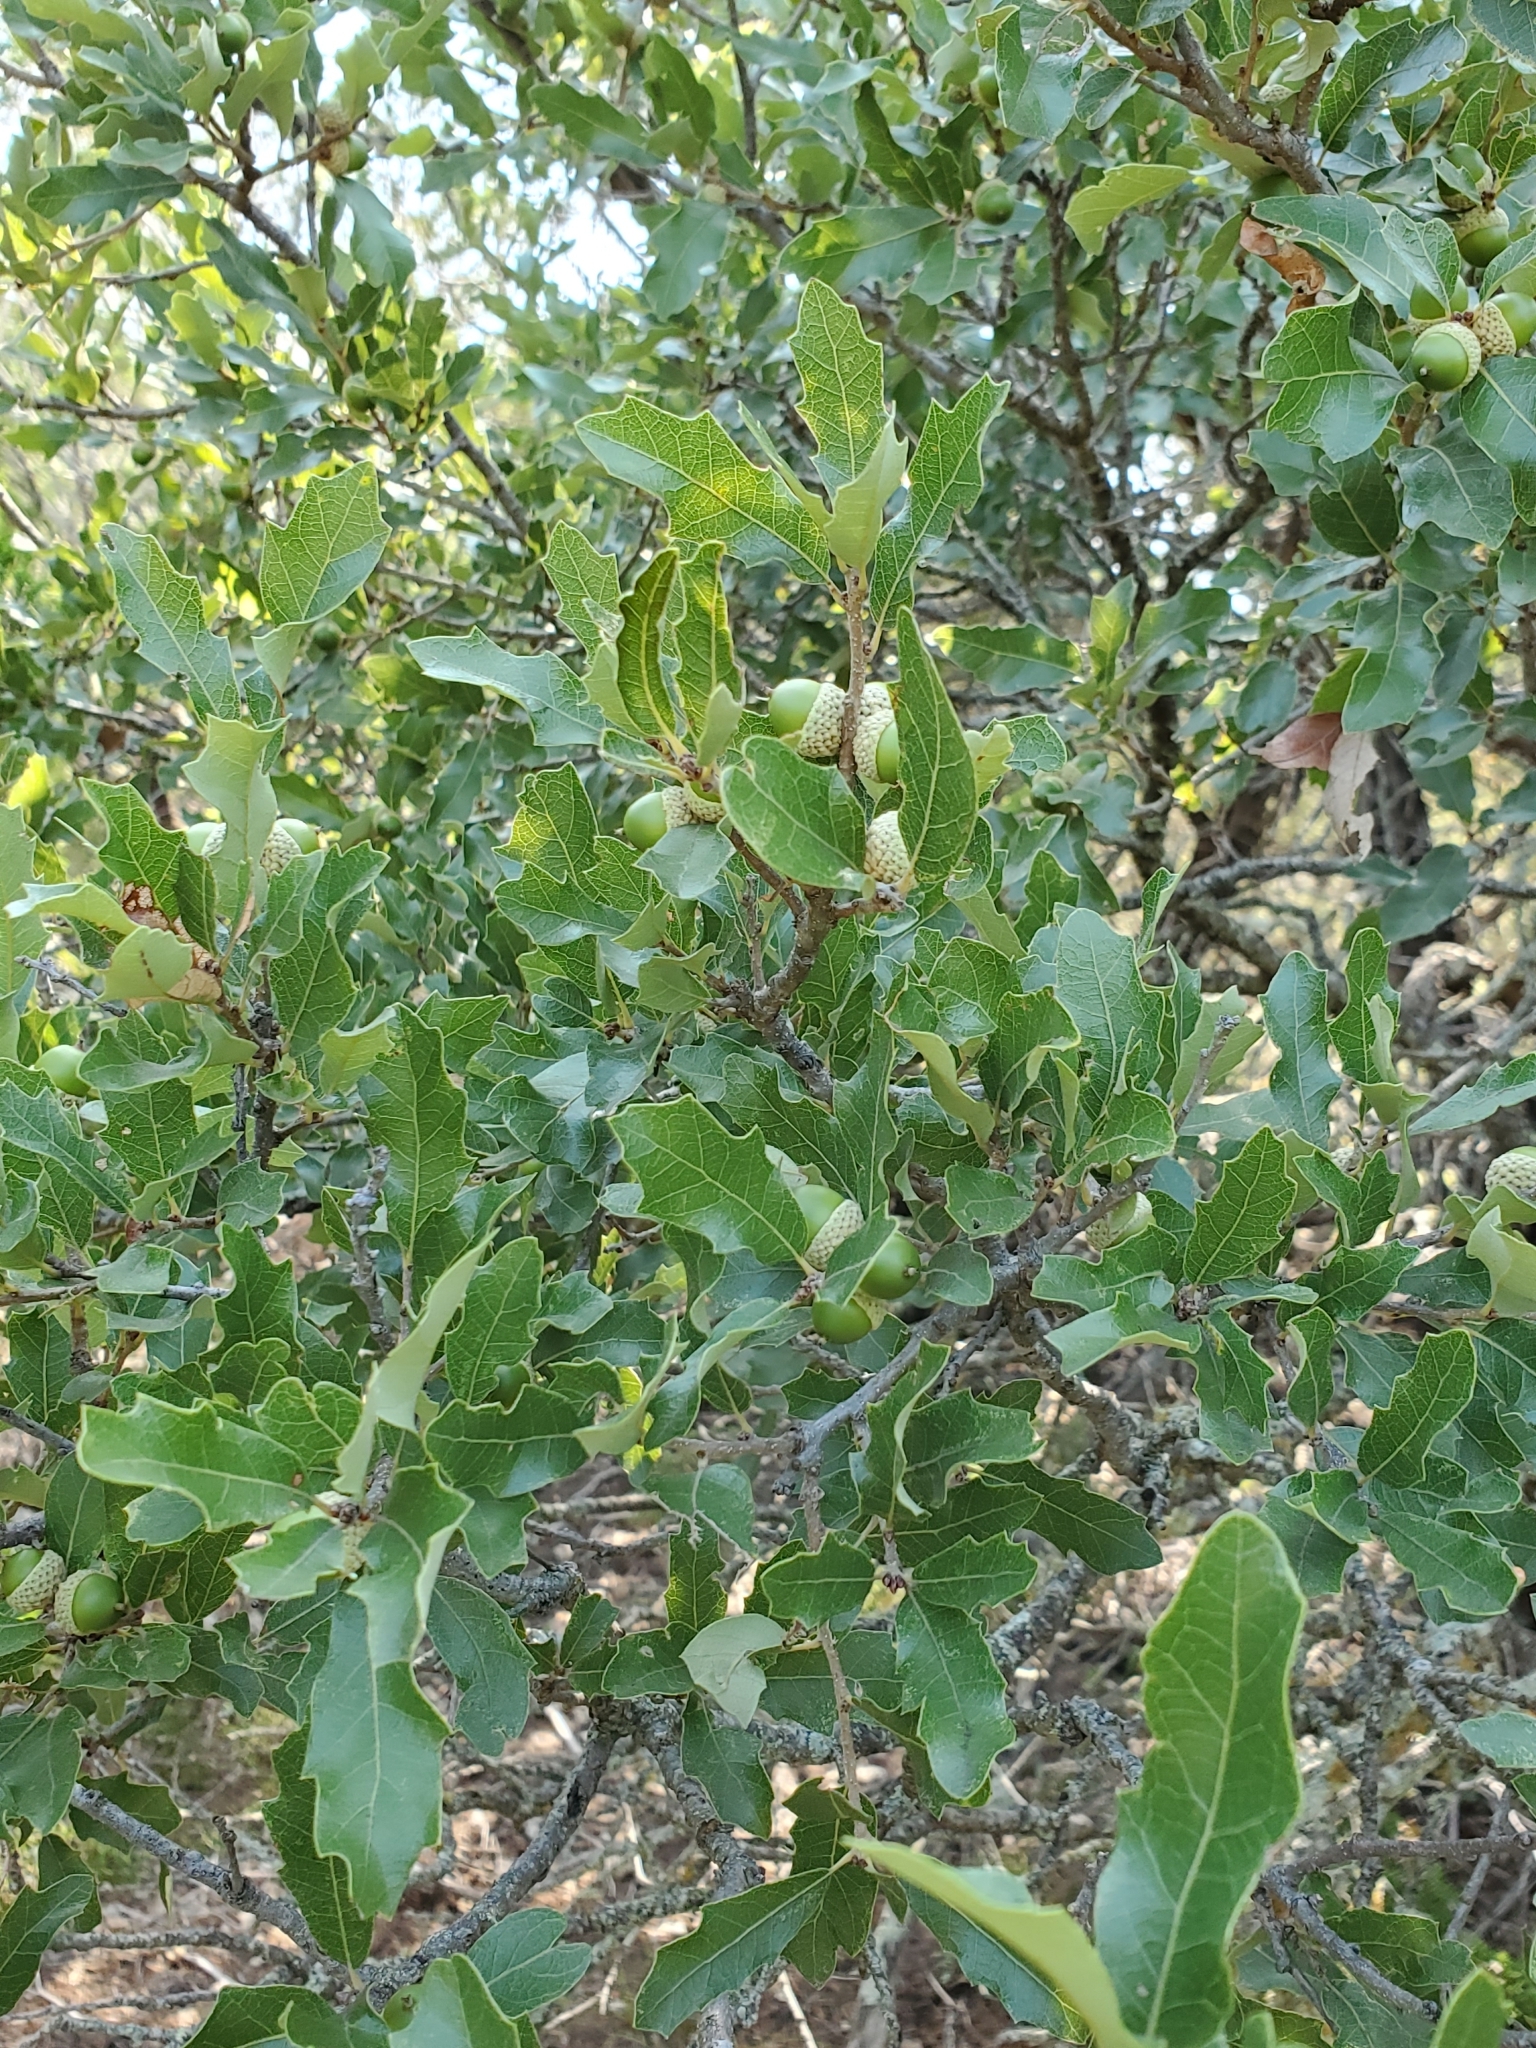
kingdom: Plantae
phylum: Tracheophyta
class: Magnoliopsida
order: Fagales
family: Fagaceae
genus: Quercus
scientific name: Quercus vaseyana
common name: Sandpaper oak
